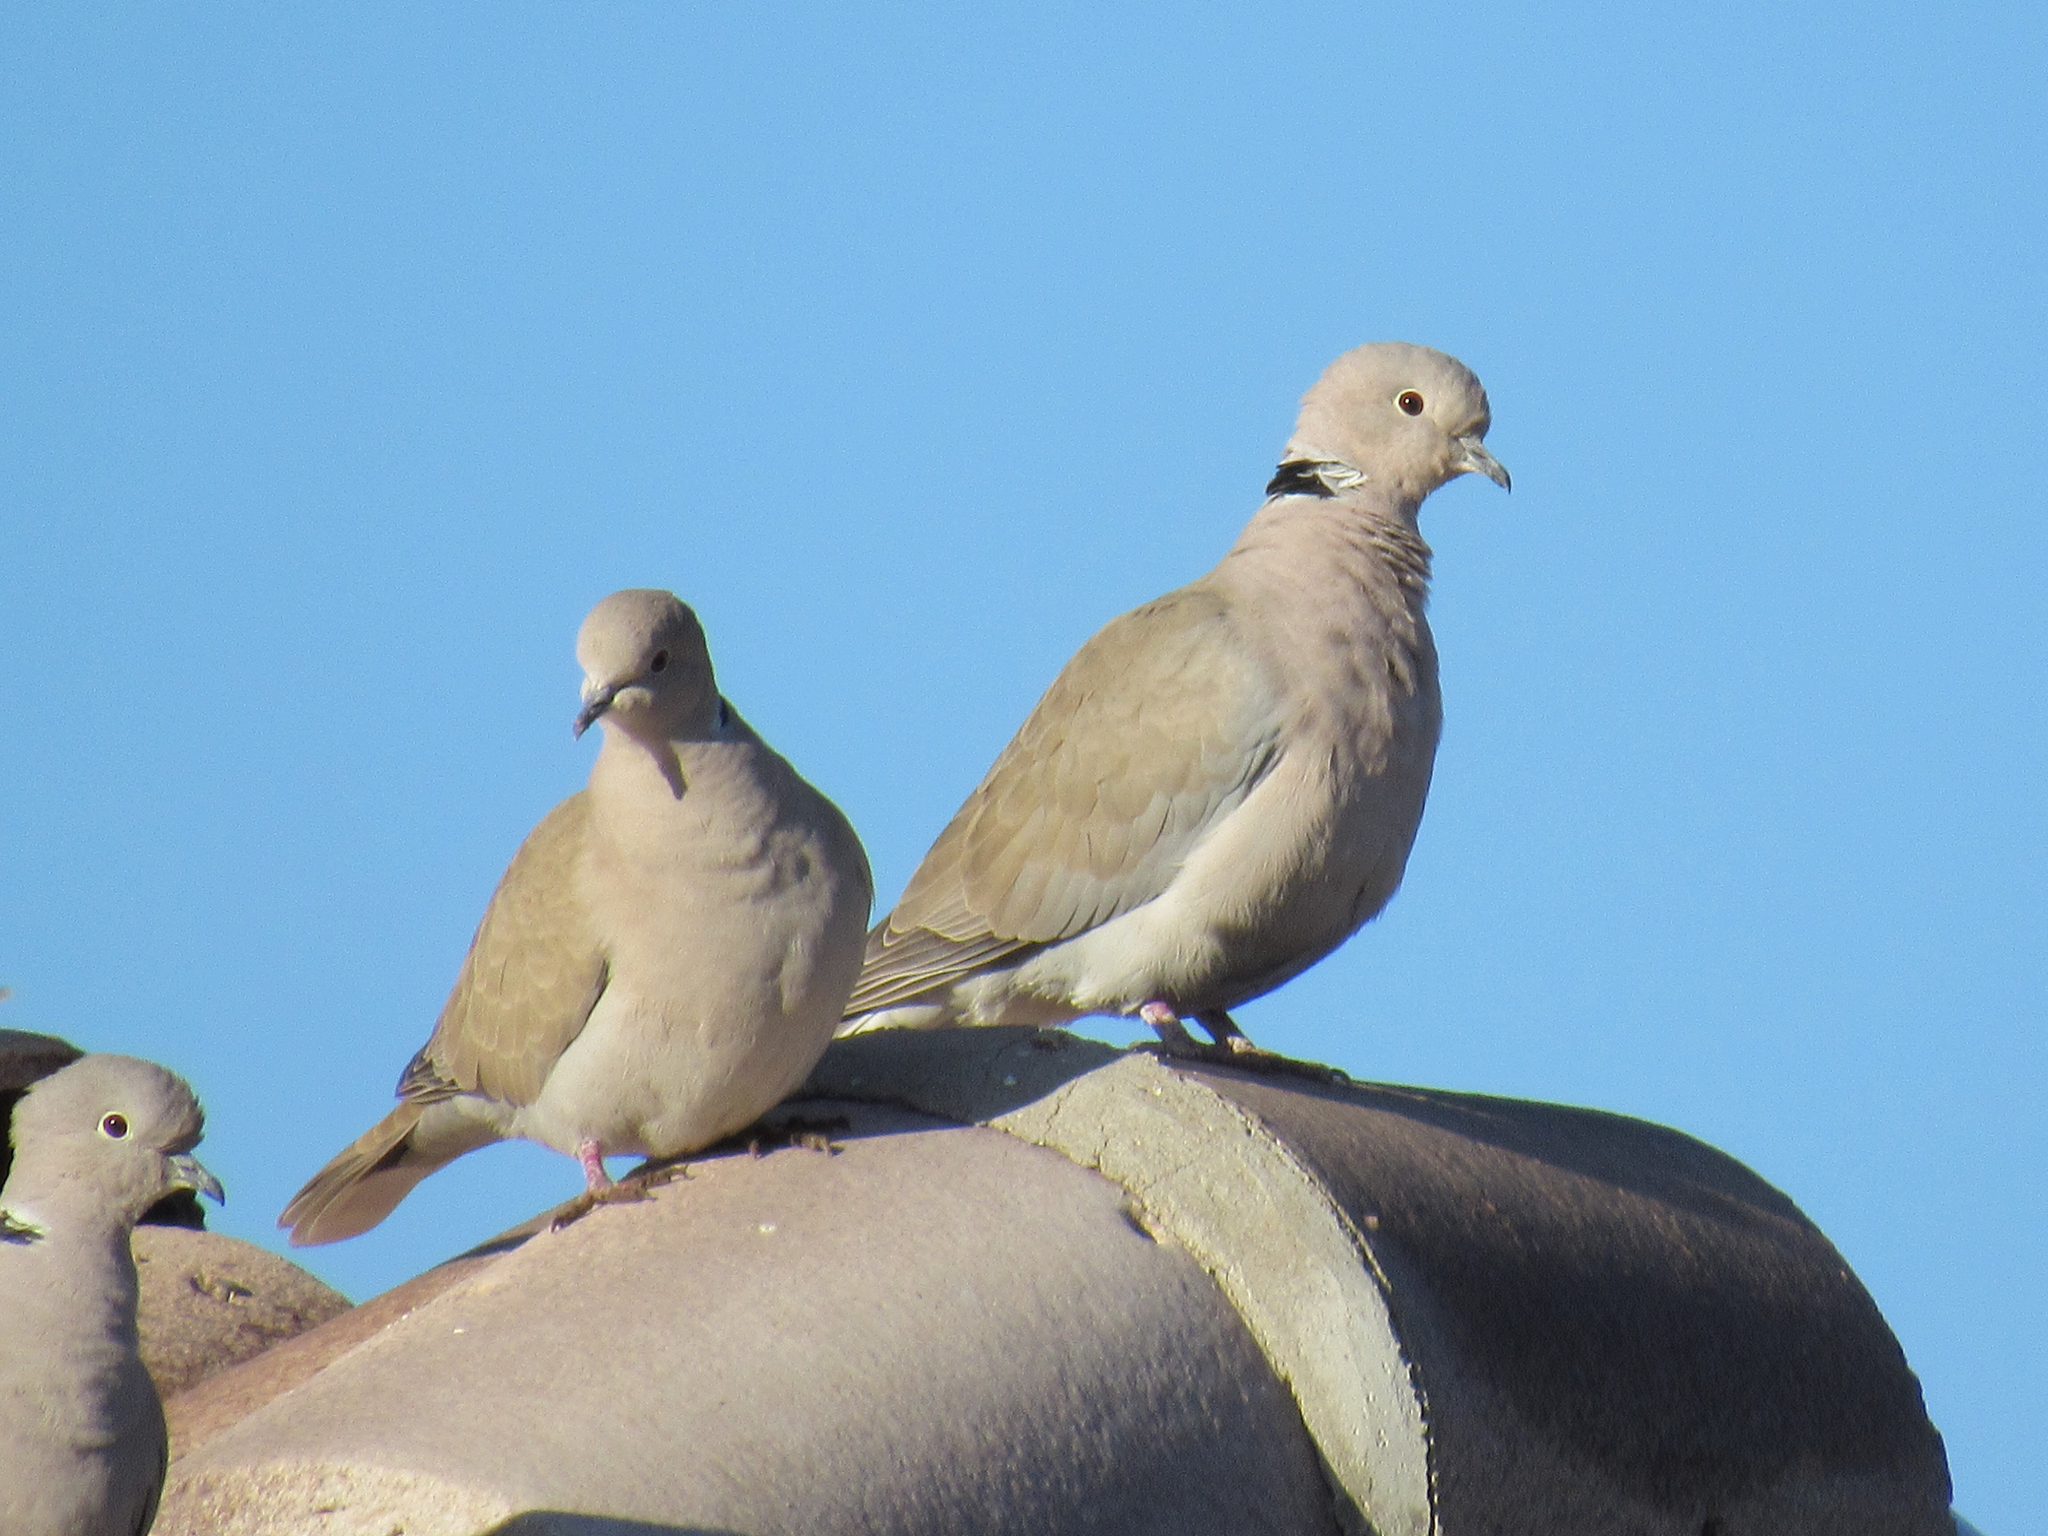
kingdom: Animalia
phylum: Chordata
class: Aves
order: Columbiformes
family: Columbidae
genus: Streptopelia
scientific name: Streptopelia decaocto
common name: Eurasian collared dove
